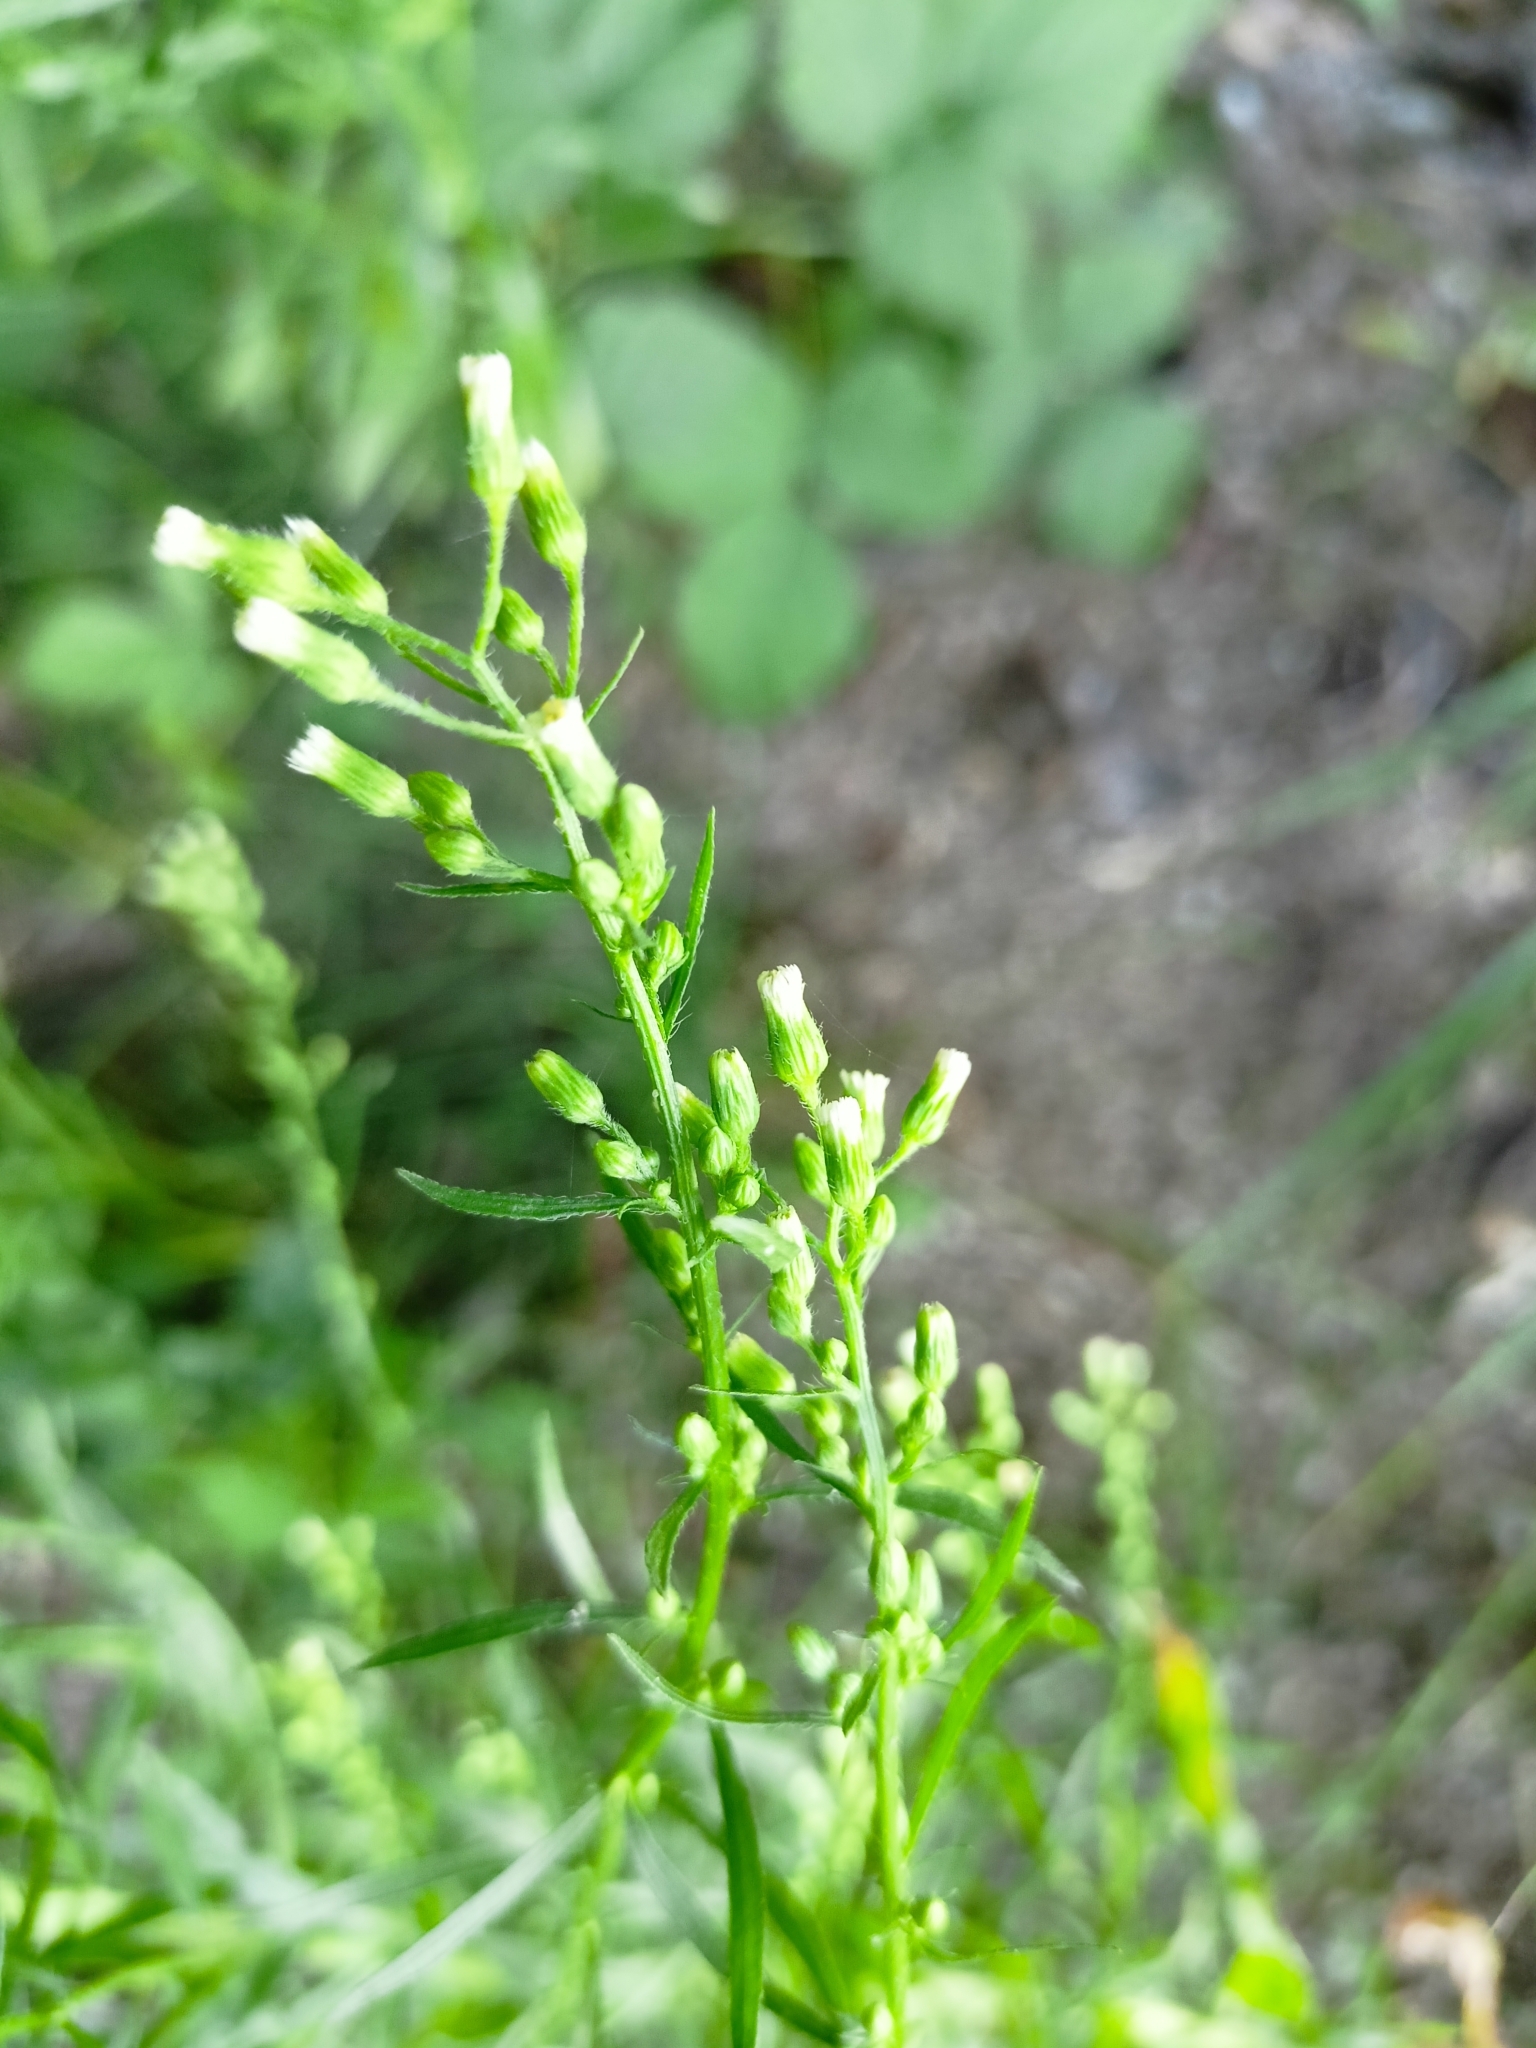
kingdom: Plantae
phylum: Tracheophyta
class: Magnoliopsida
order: Asterales
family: Asteraceae
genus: Erigeron
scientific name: Erigeron canadensis
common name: Canadian fleabane
